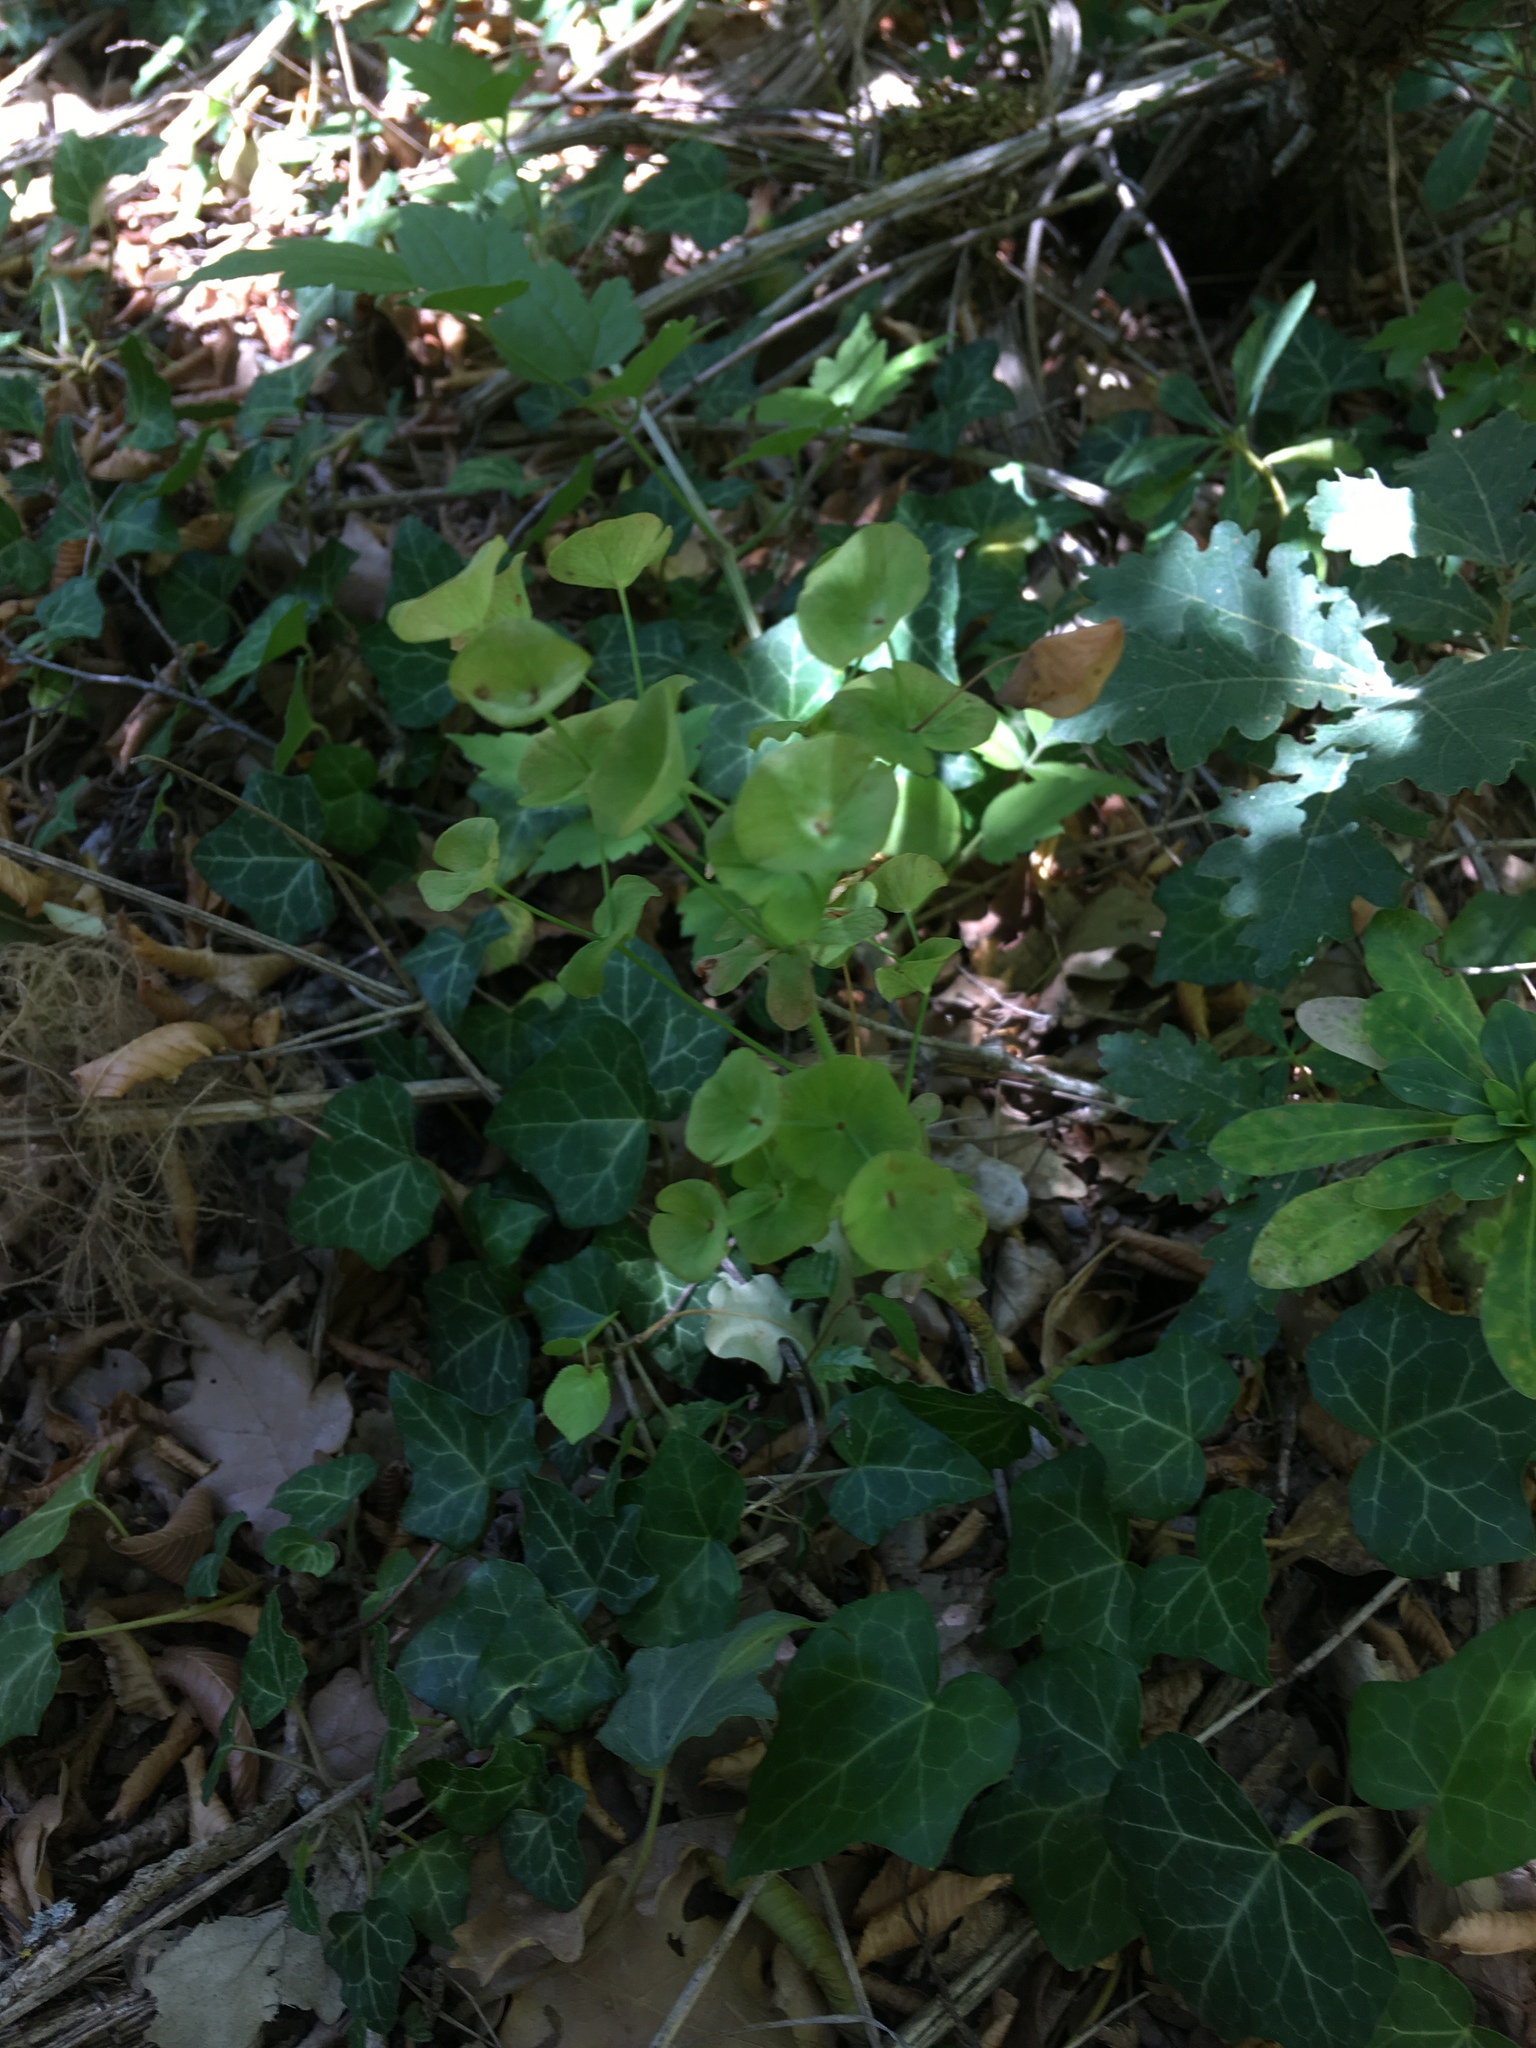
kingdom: Plantae
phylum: Tracheophyta
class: Magnoliopsida
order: Malpighiales
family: Euphorbiaceae
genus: Euphorbia
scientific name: Euphorbia amygdaloides
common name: Wood spurge
